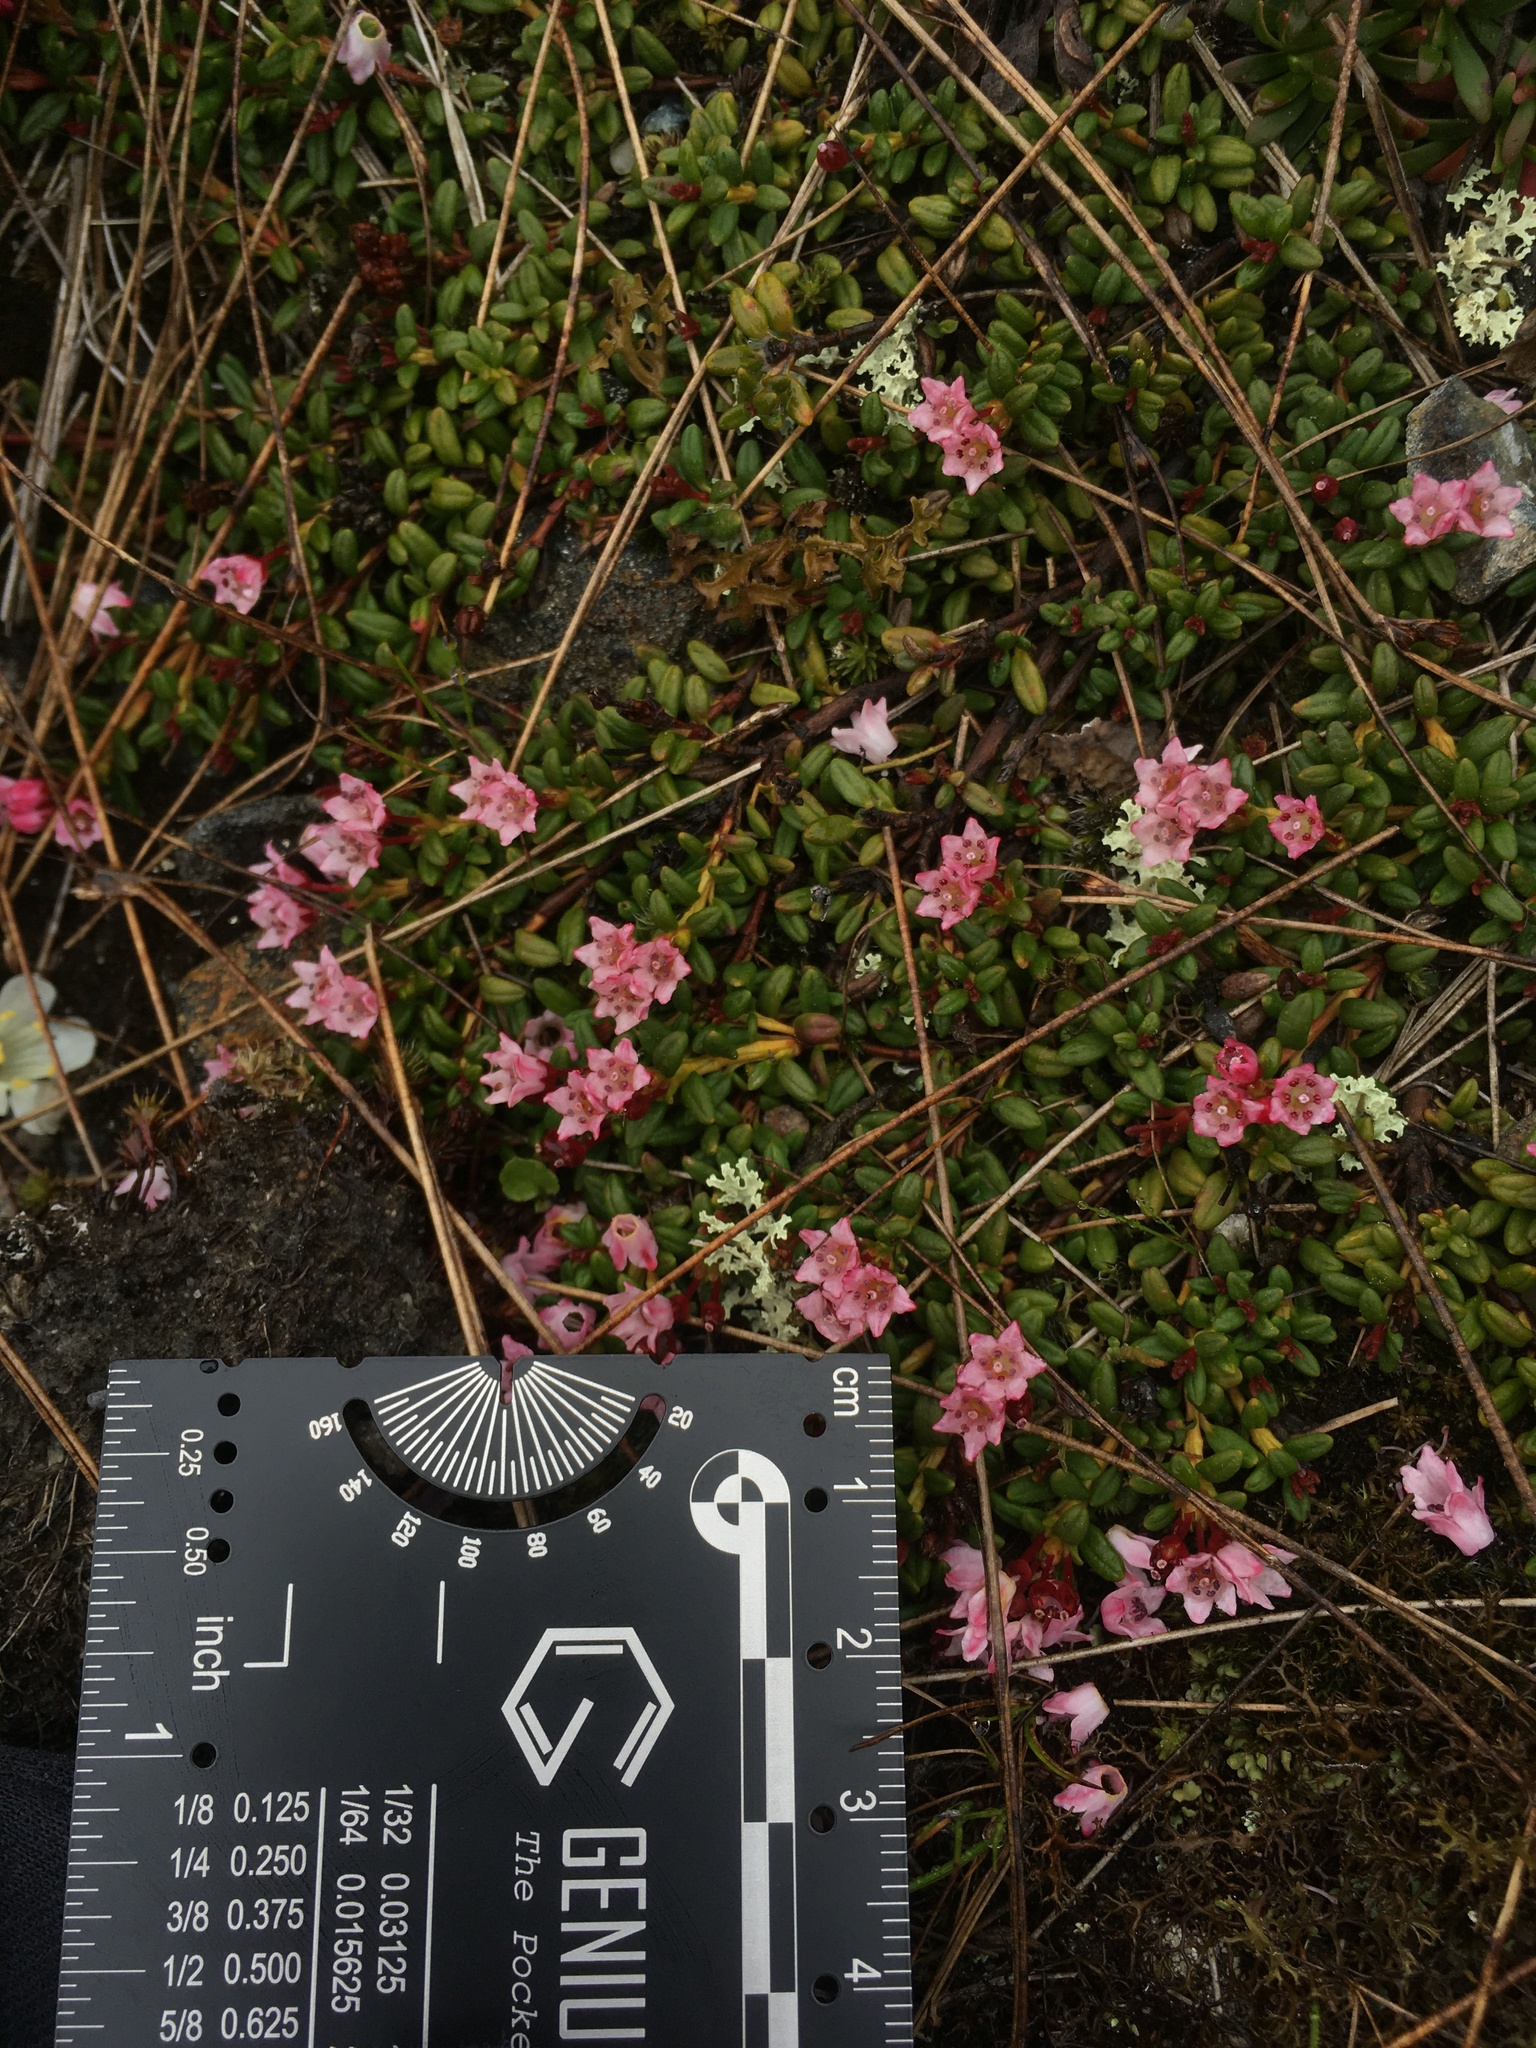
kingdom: Plantae
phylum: Tracheophyta
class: Magnoliopsida
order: Ericales
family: Ericaceae
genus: Kalmia
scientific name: Kalmia procumbens
